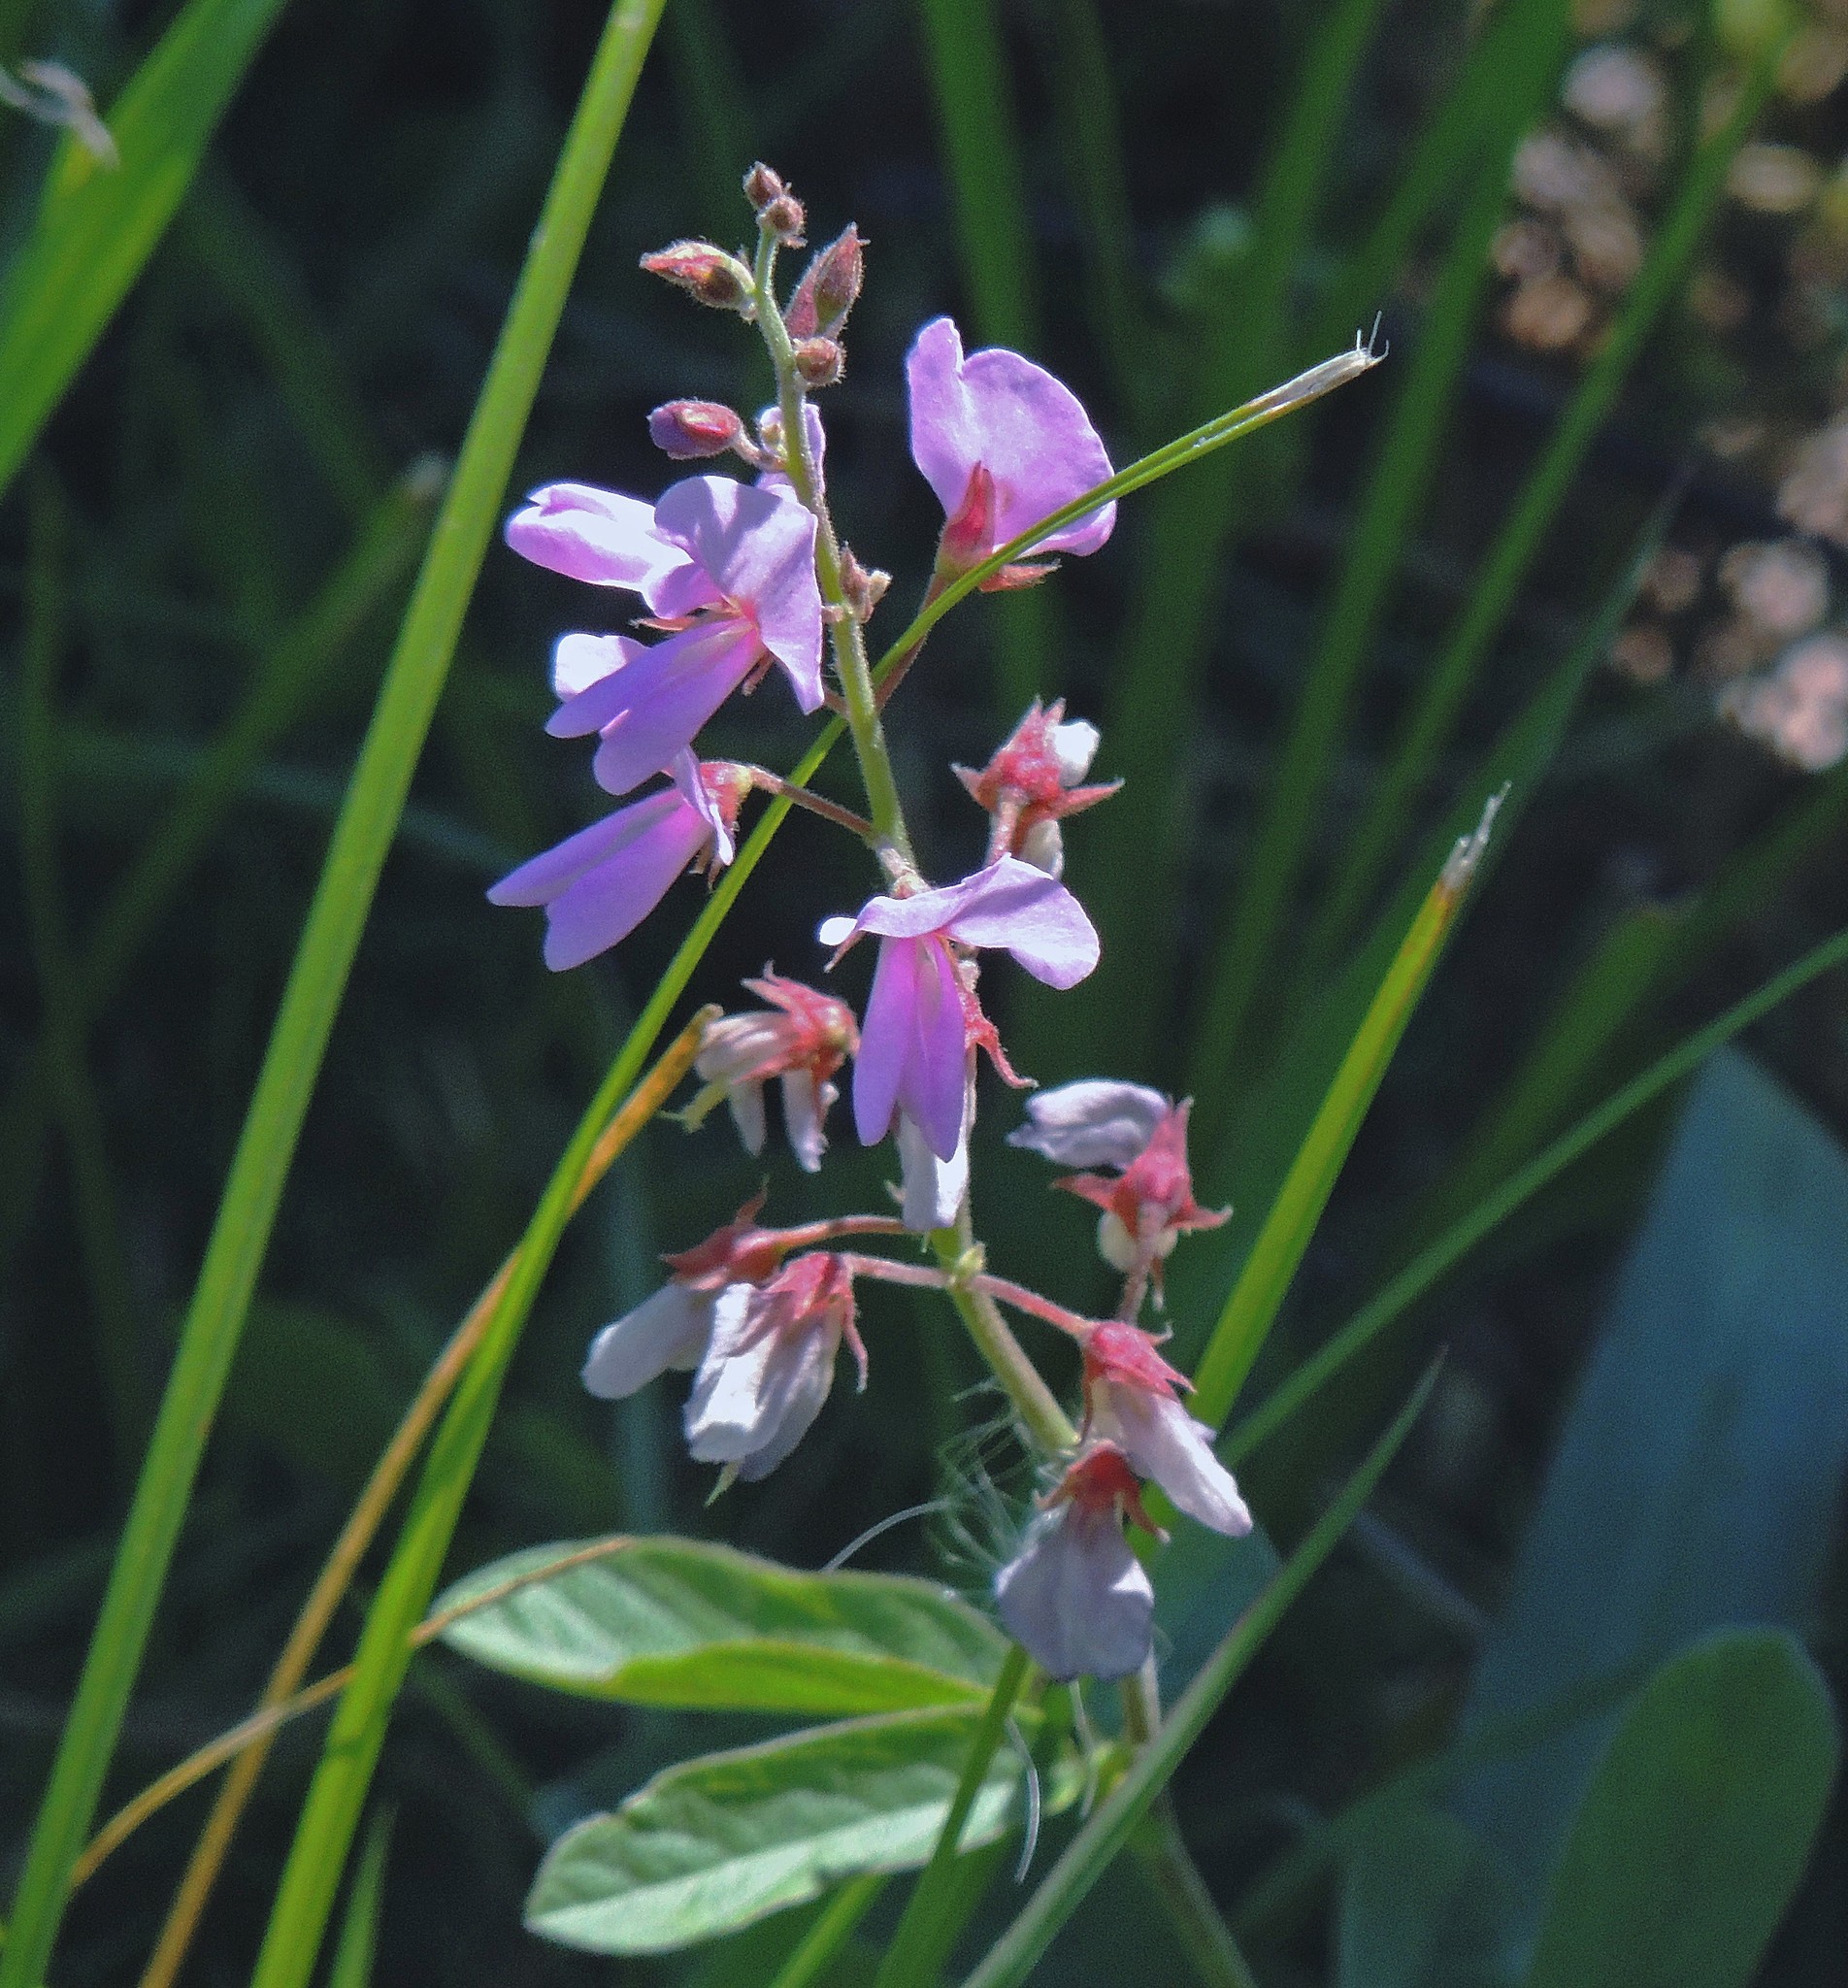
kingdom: Plantae
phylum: Tracheophyta
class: Magnoliopsida
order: Fabales
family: Fabaceae
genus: Desmodium
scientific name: Desmodium incanum
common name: Tickclover
